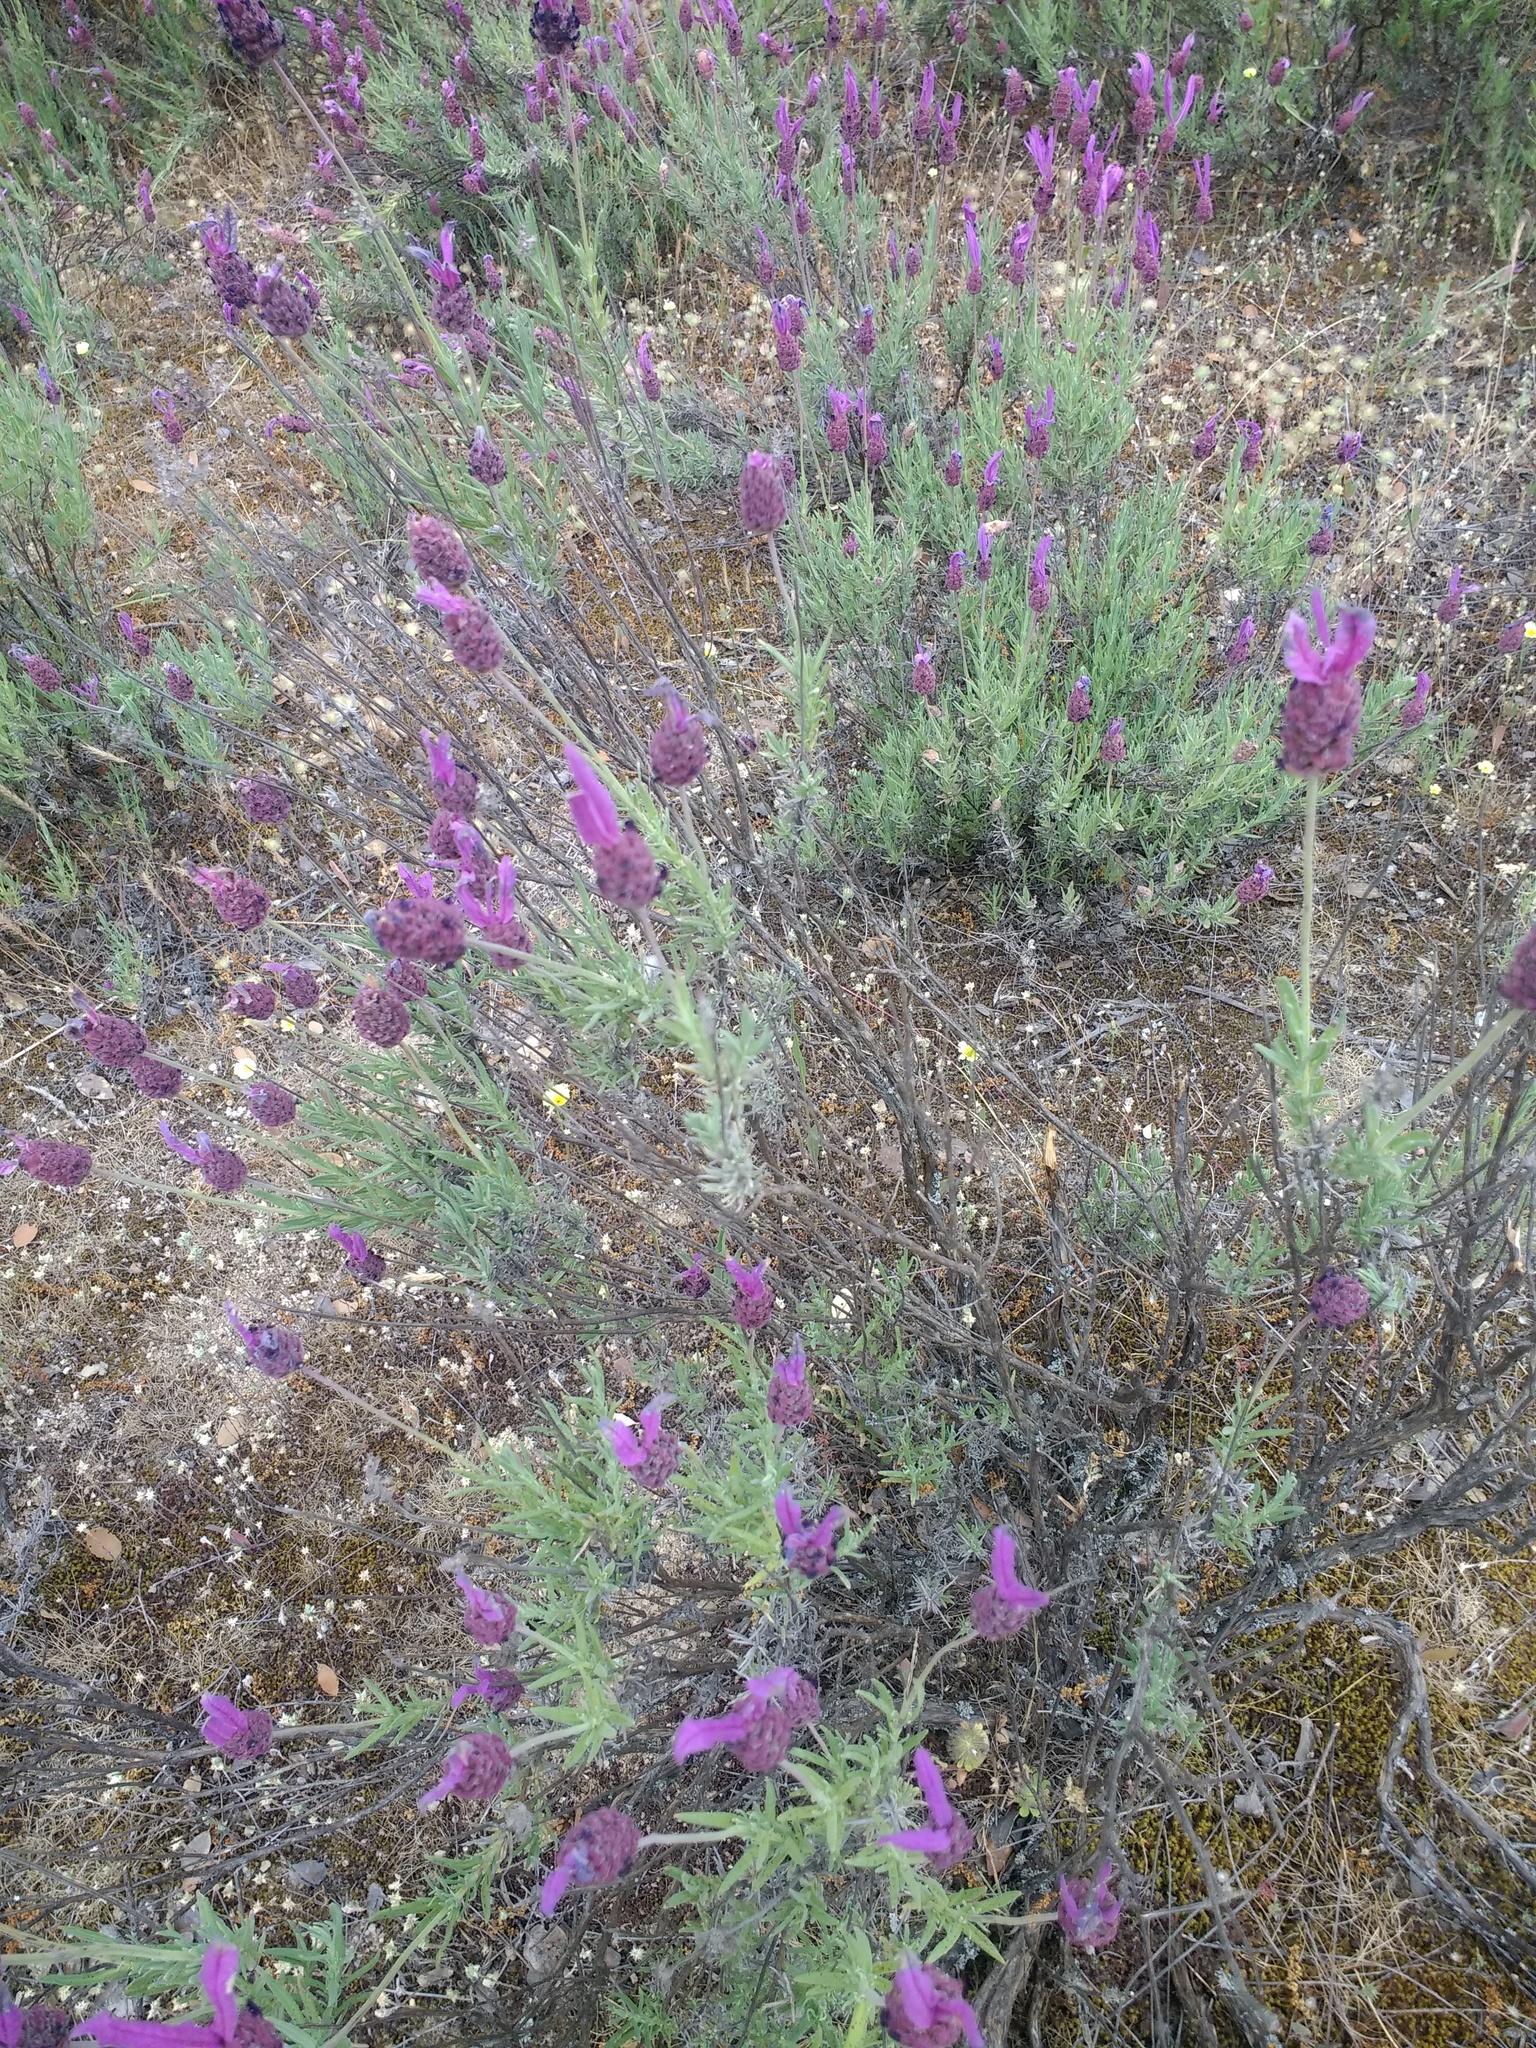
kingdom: Plantae
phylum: Tracheophyta
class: Magnoliopsida
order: Lamiales
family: Lamiaceae
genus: Lavandula
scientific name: Lavandula pedunculata
